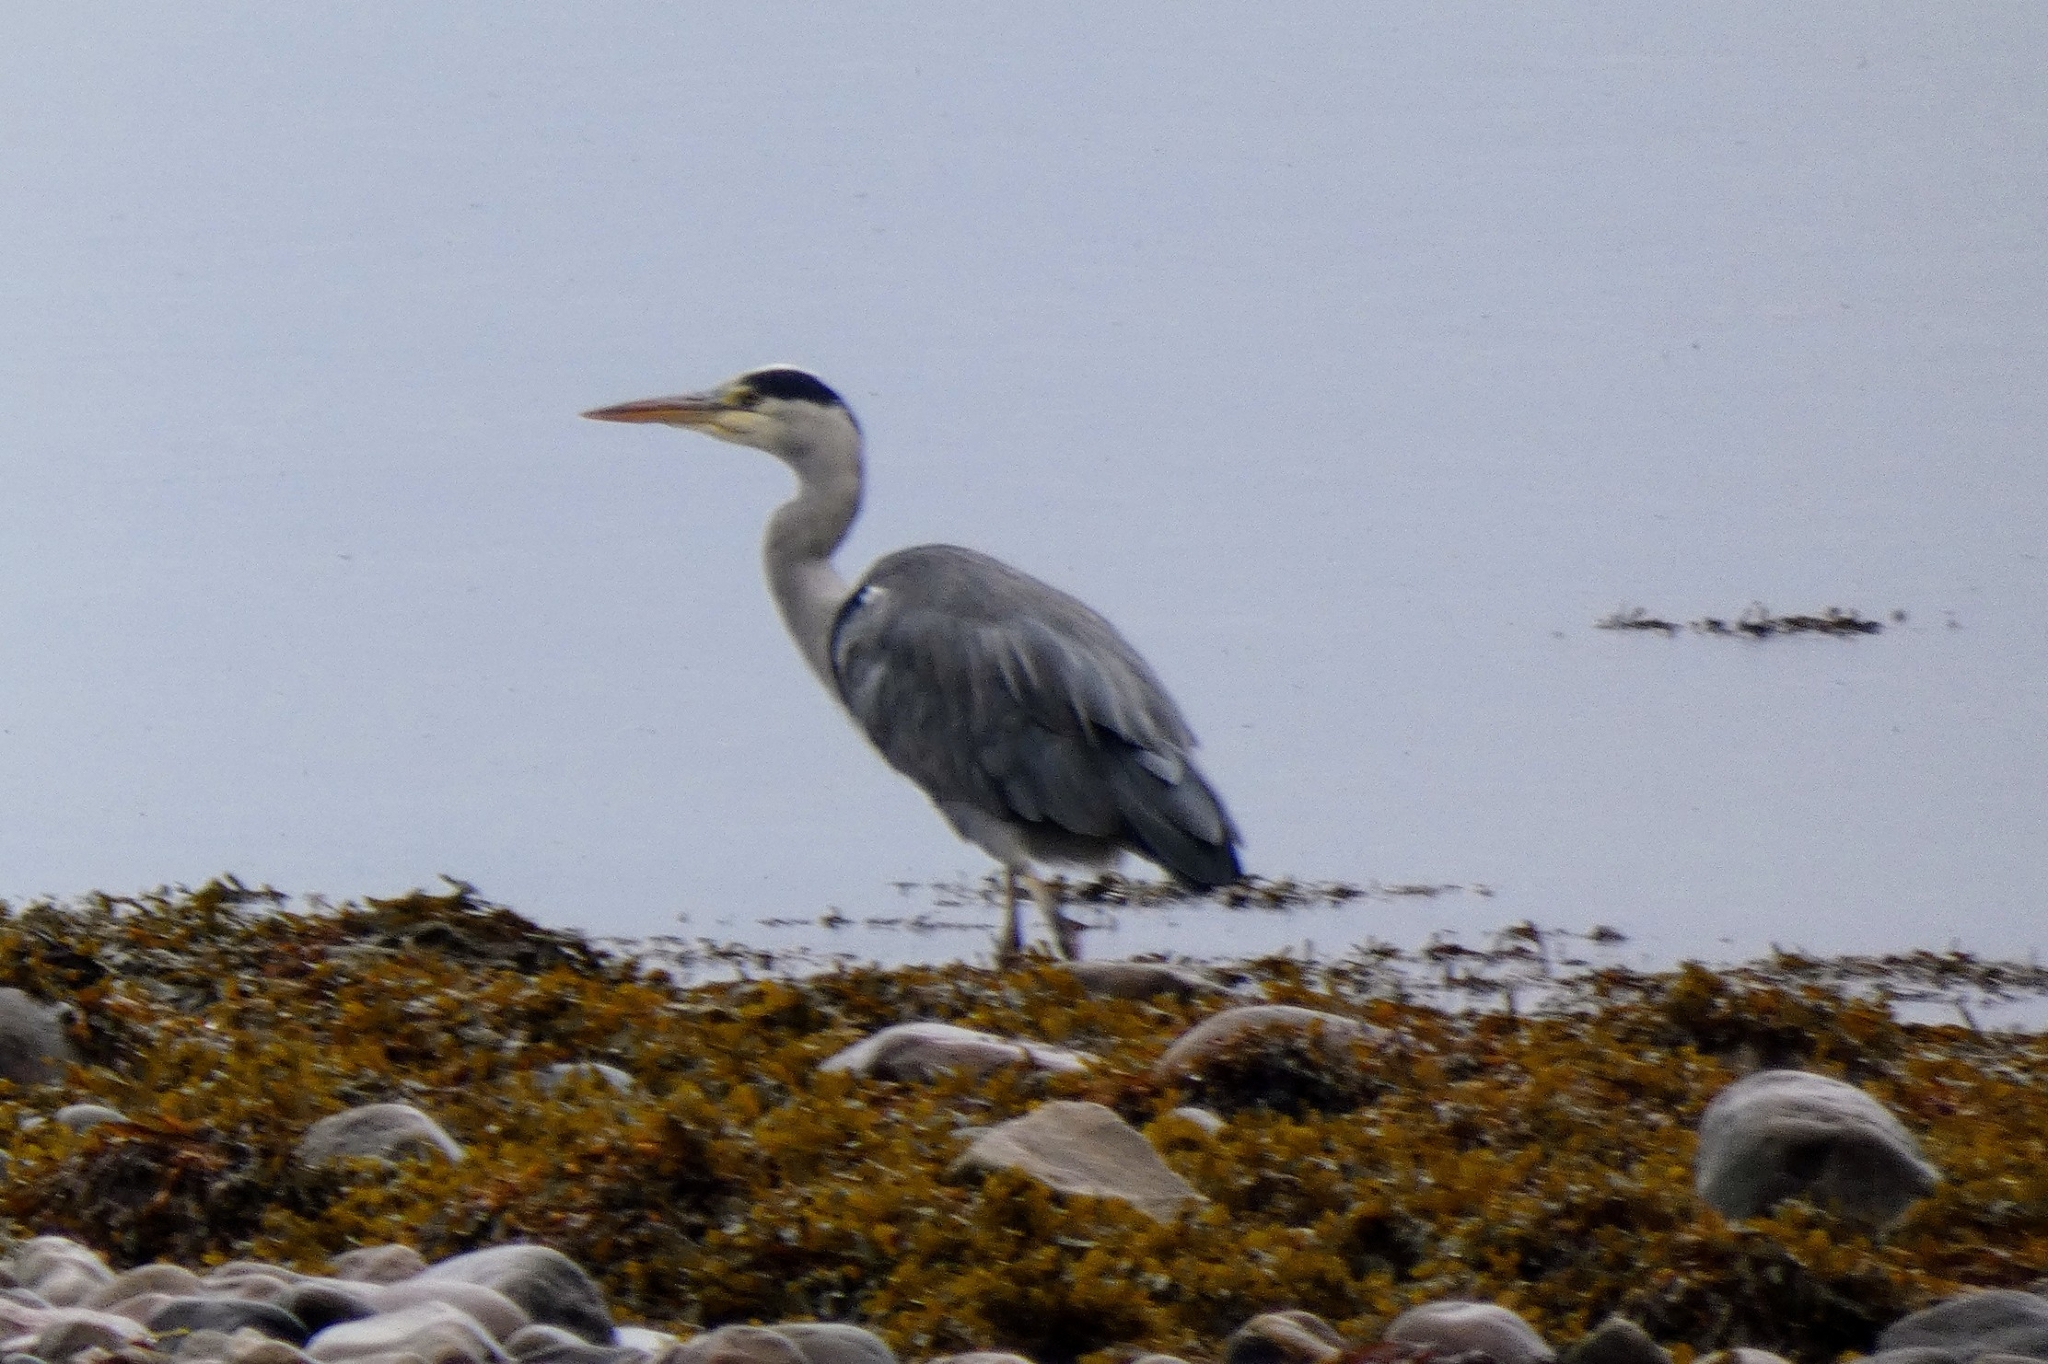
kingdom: Animalia
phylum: Chordata
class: Aves
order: Pelecaniformes
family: Ardeidae
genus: Ardea
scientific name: Ardea cinerea
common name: Grey heron
